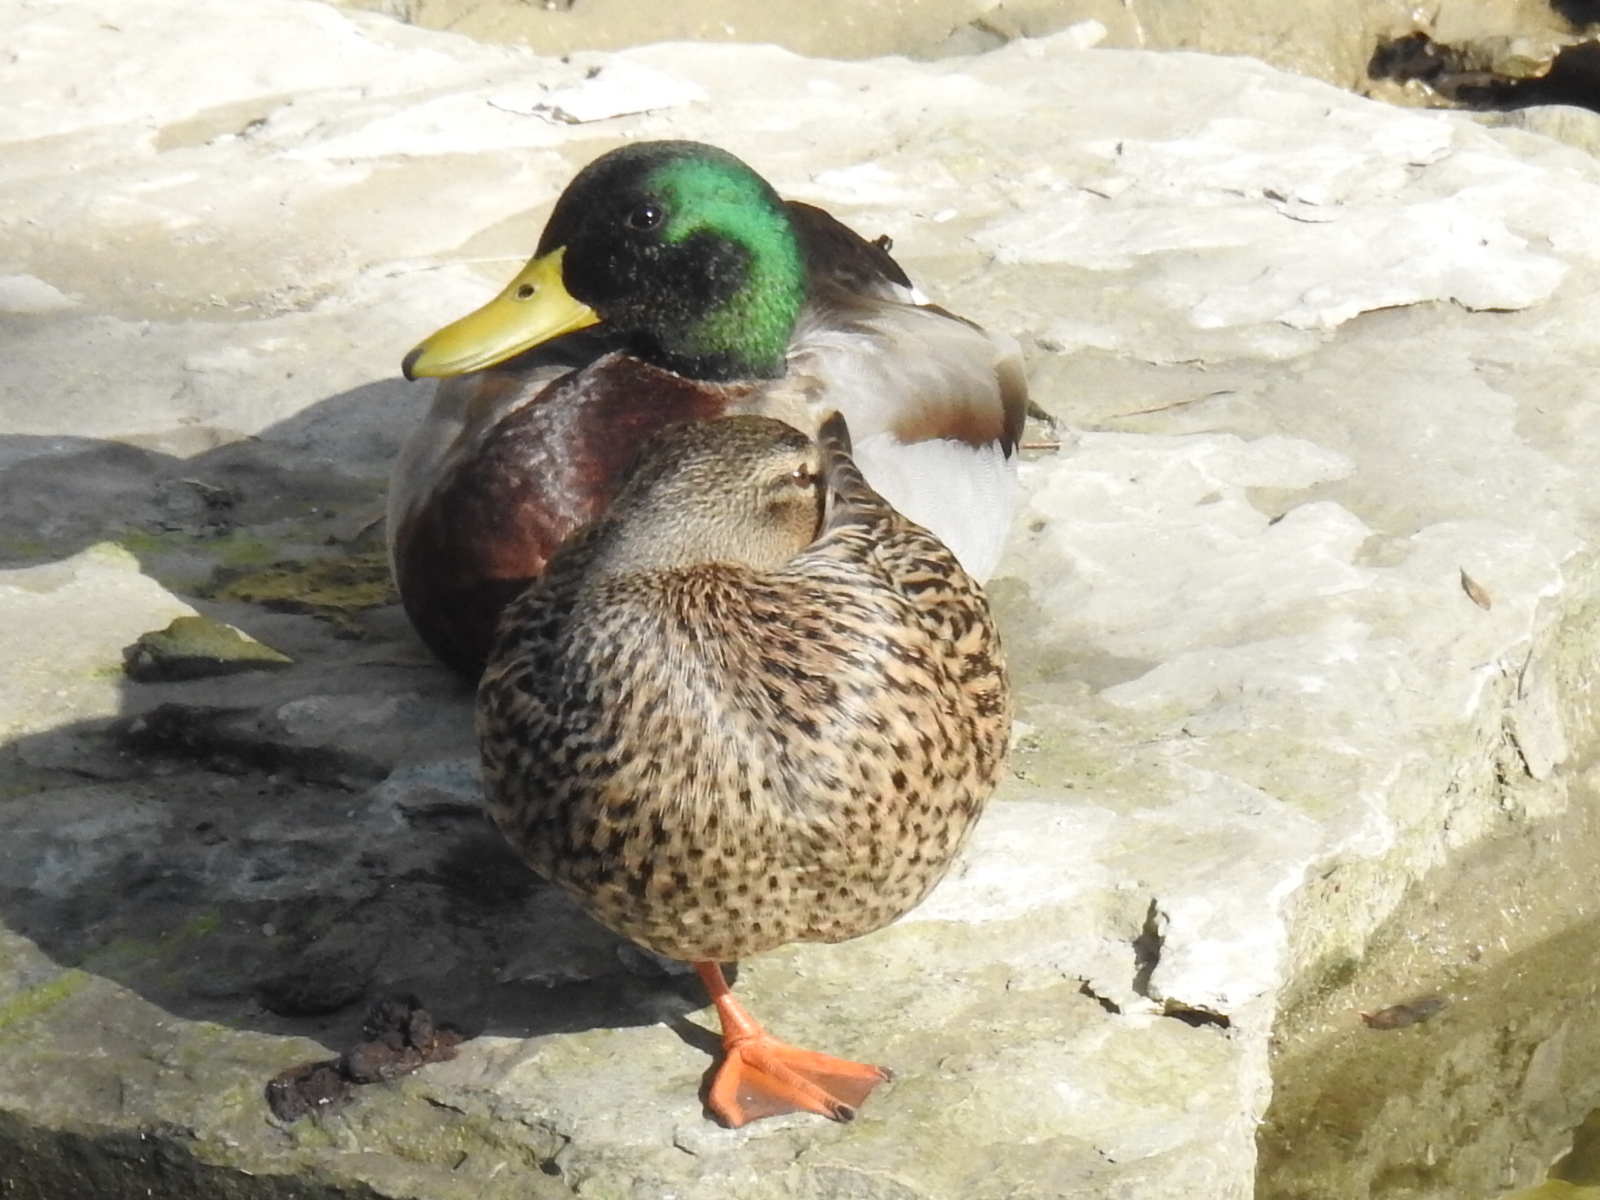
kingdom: Animalia
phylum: Chordata
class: Aves
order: Anseriformes
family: Anatidae
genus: Anas
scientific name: Anas platyrhynchos
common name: Mallard
